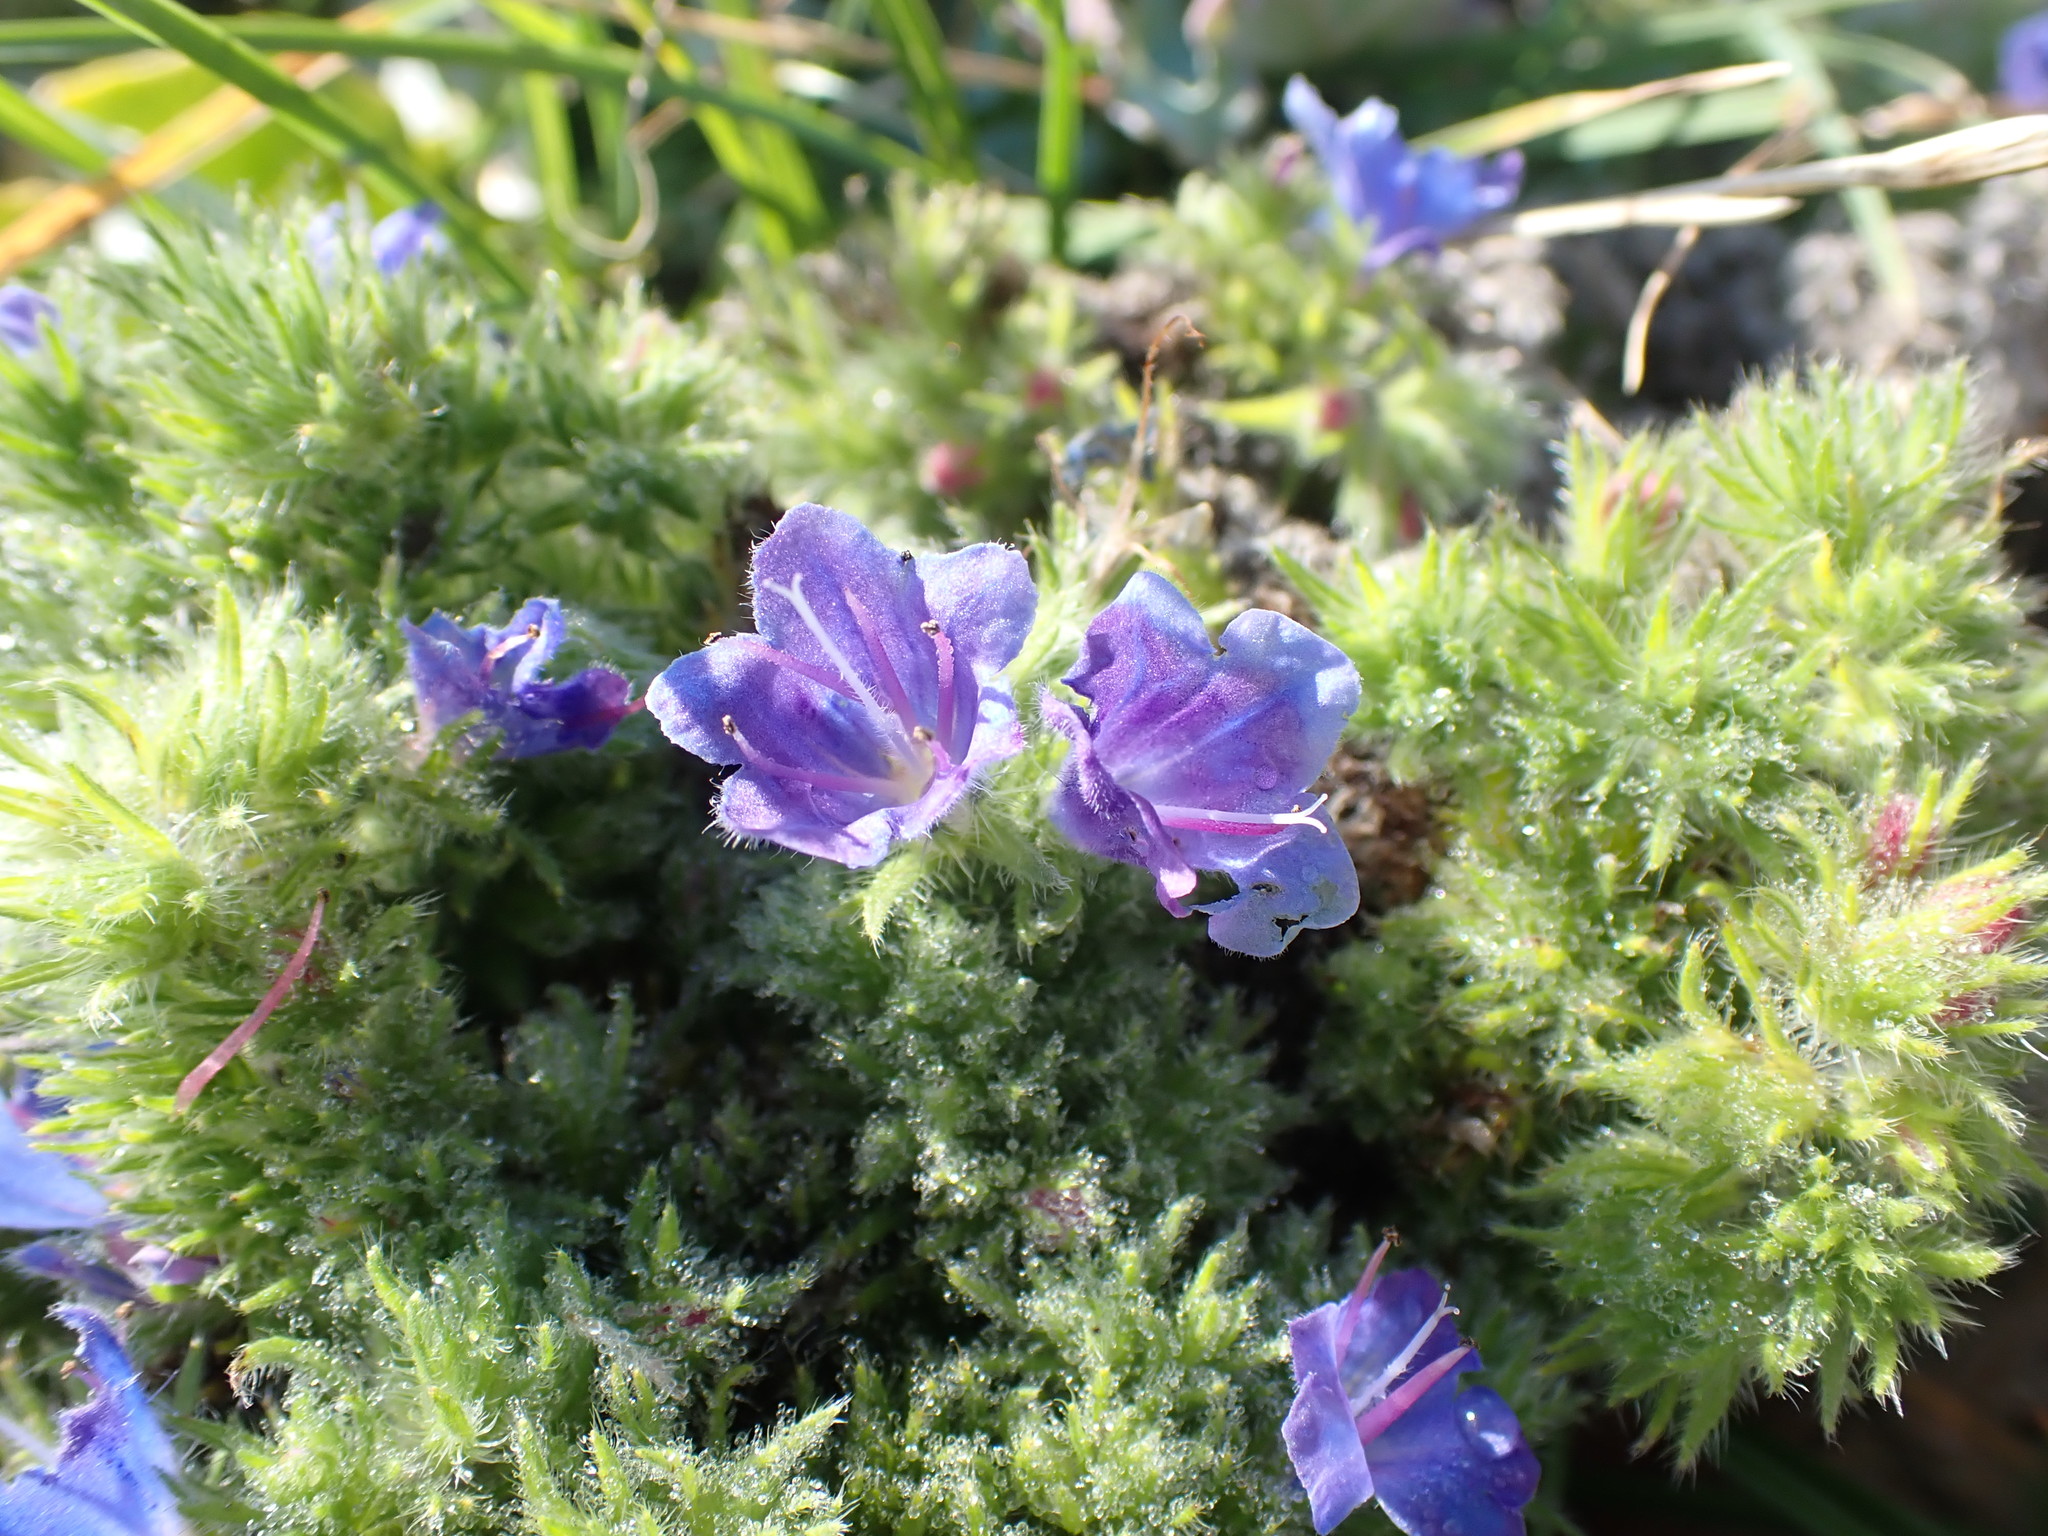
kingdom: Plantae
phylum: Tracheophyta
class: Magnoliopsida
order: Boraginales
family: Boraginaceae
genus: Echium
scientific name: Echium vulgare
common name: Common viper's bugloss
